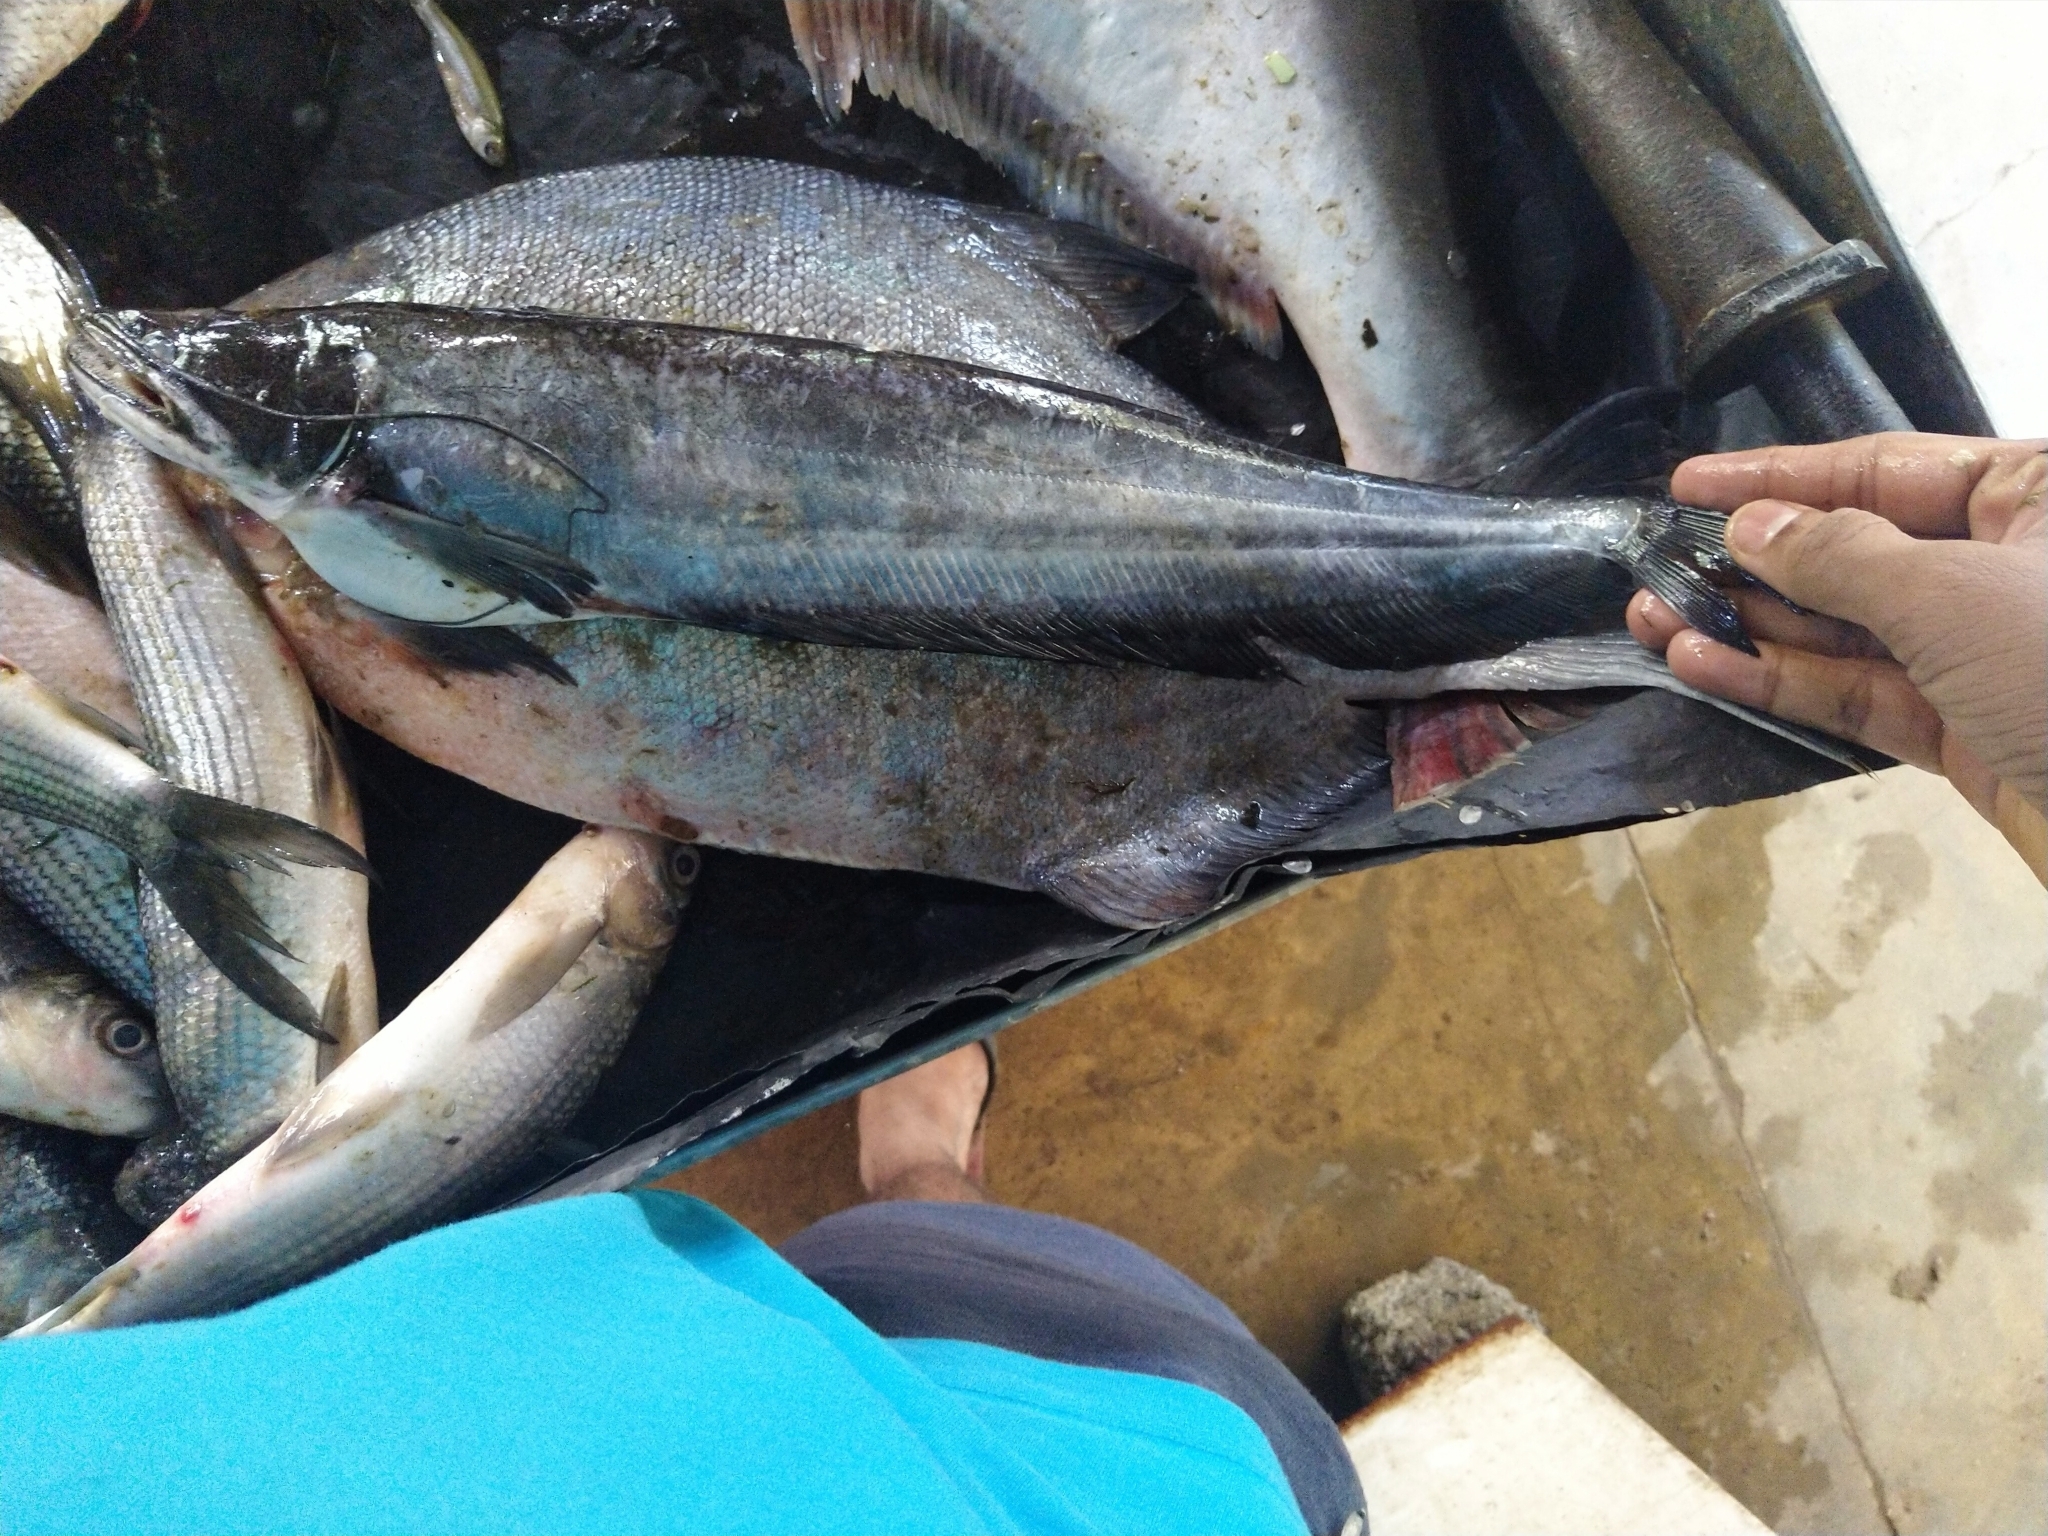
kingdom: Animalia
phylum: Chordata
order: Siluriformes
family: Siluridae
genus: Wallago
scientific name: Wallago attu
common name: Freshwater shark
